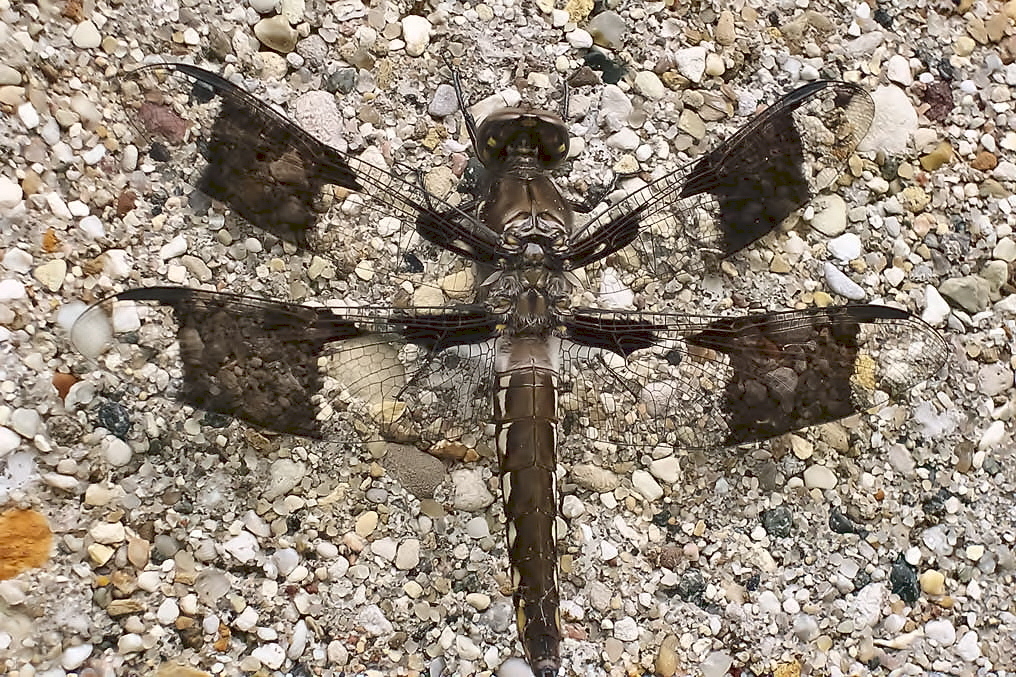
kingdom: Animalia
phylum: Arthropoda
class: Insecta
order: Odonata
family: Libellulidae
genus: Plathemis
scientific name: Plathemis lydia
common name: Common whitetail
